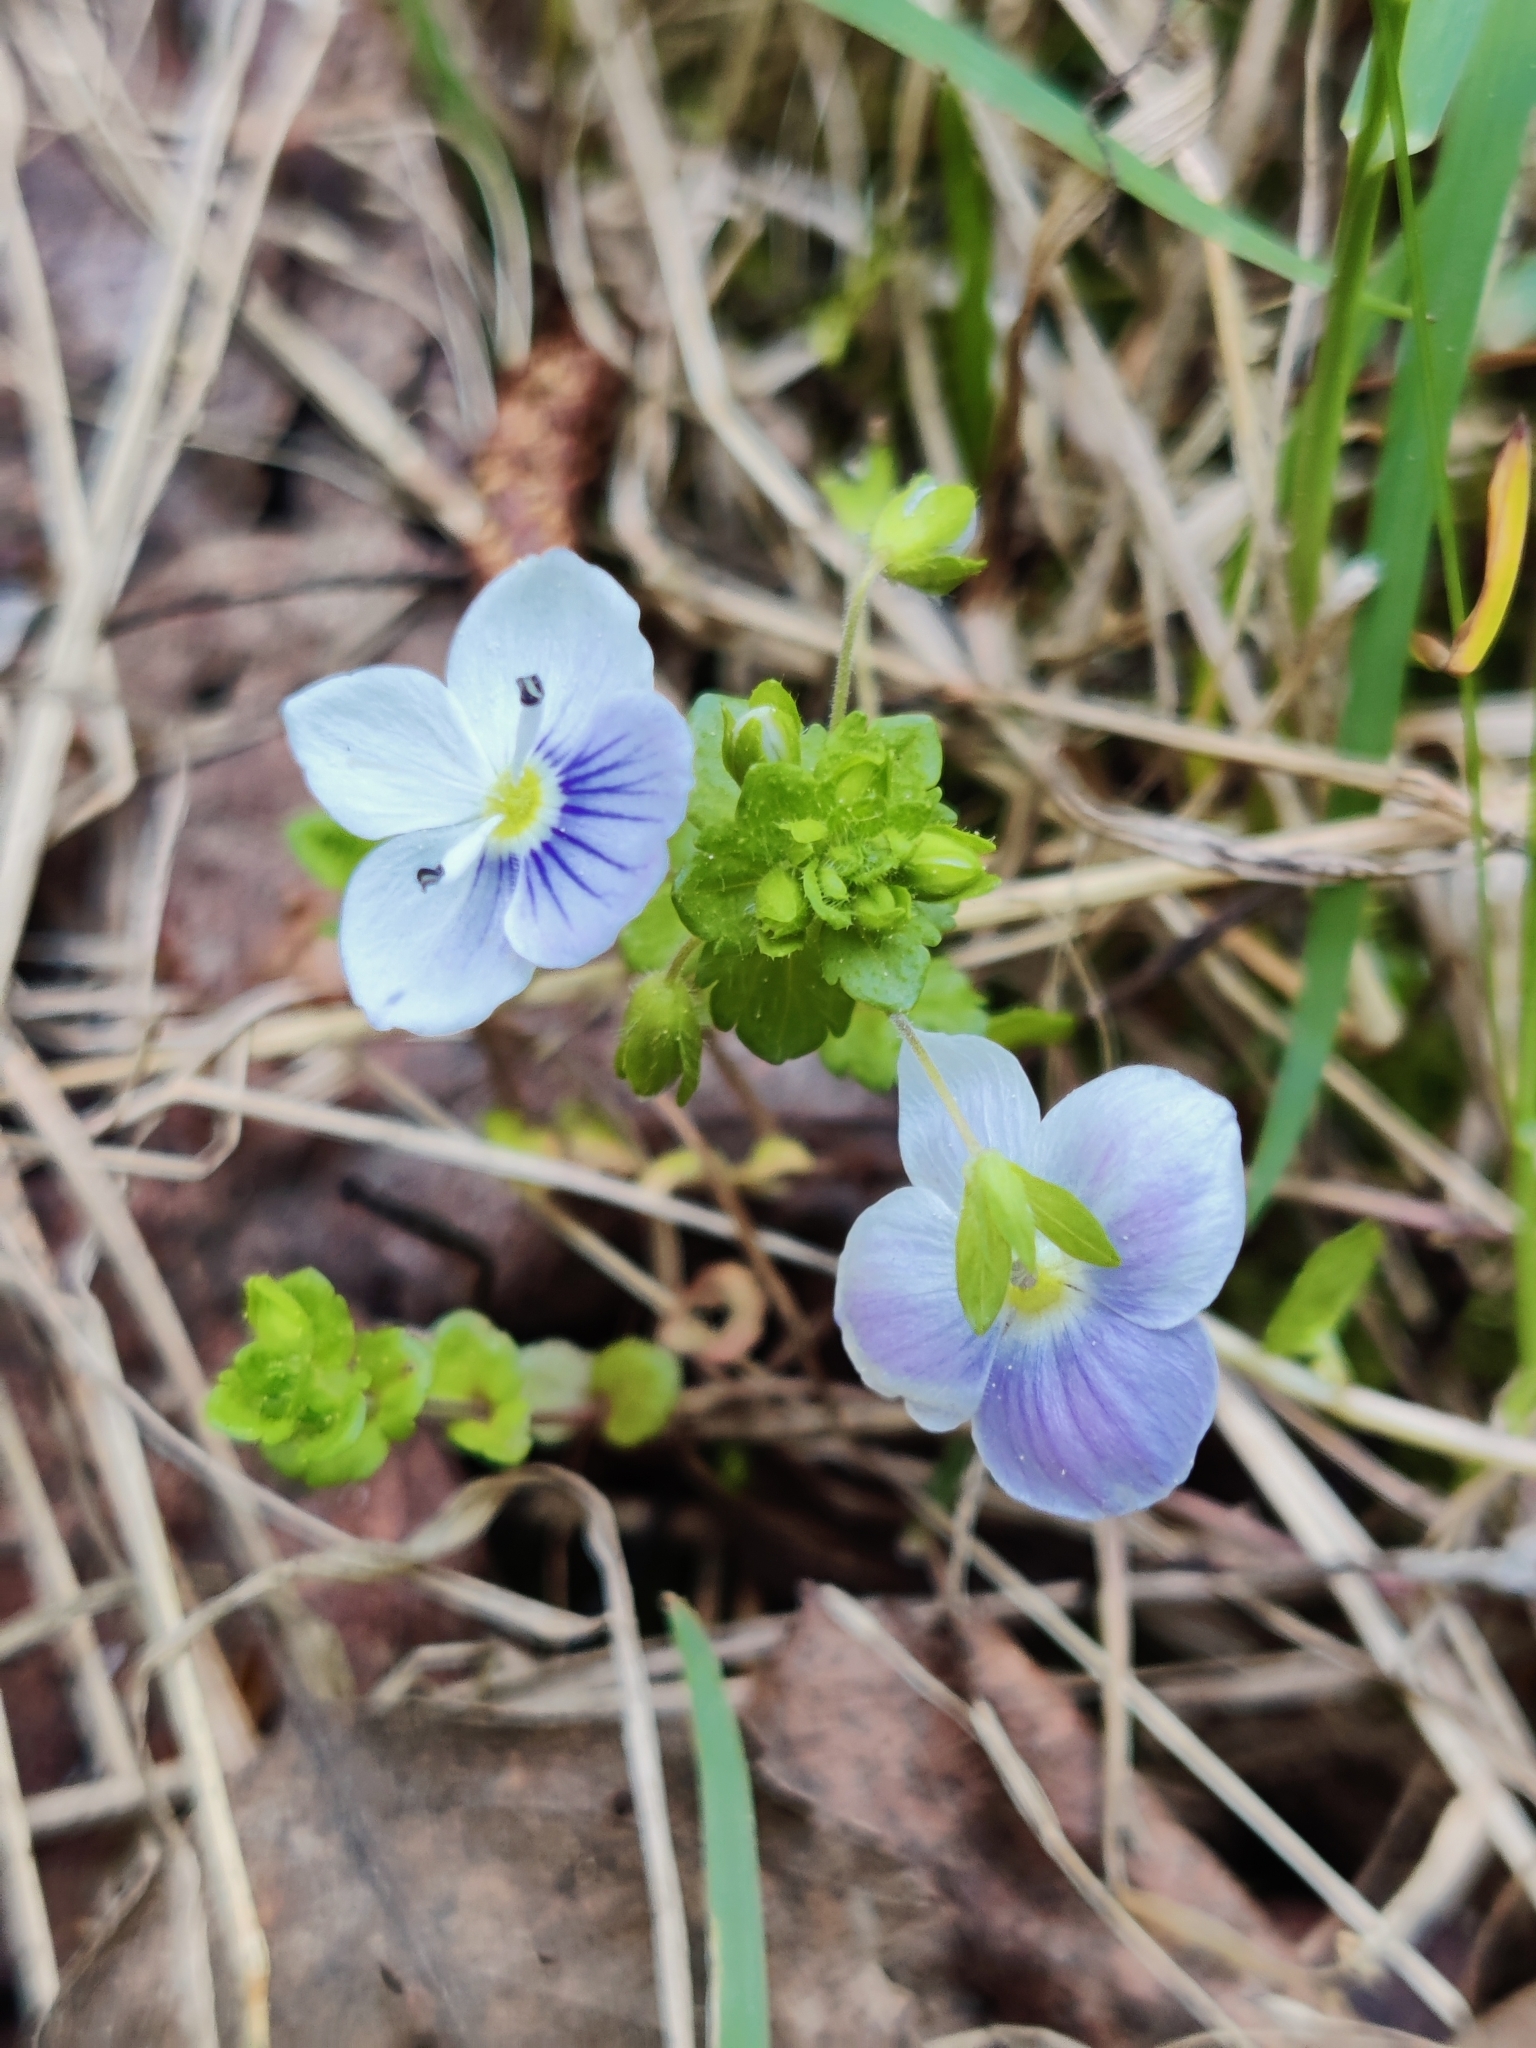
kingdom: Plantae
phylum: Tracheophyta
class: Magnoliopsida
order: Lamiales
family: Plantaginaceae
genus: Veronica
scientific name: Veronica filiformis
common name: Slender speedwell
